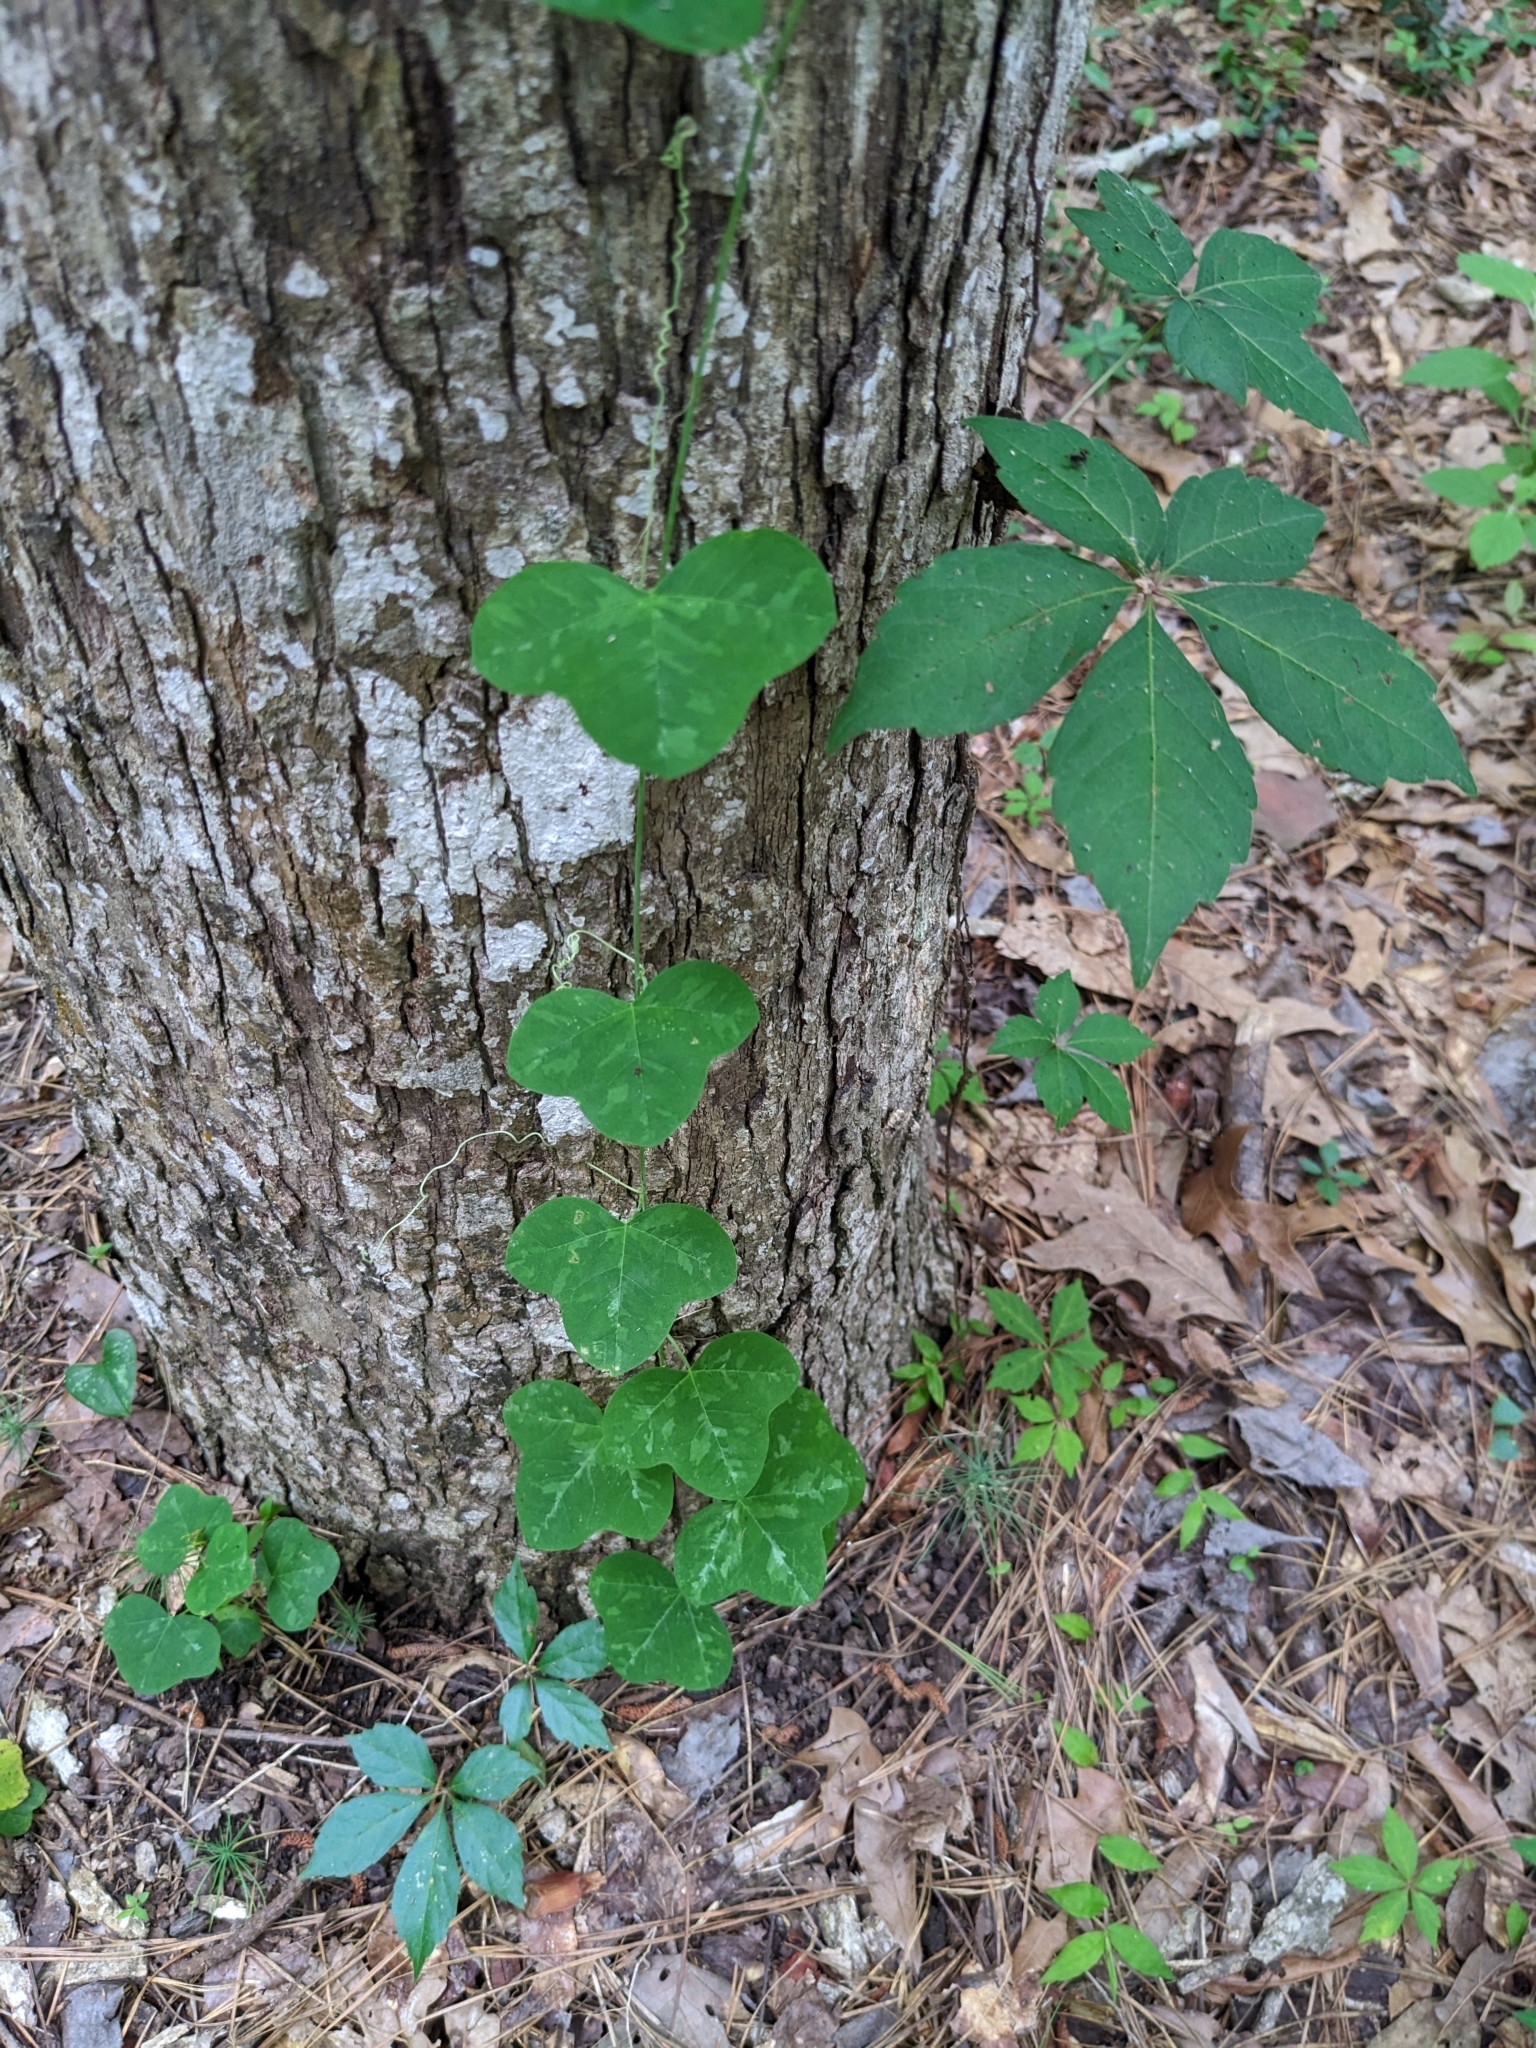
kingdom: Plantae
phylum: Tracheophyta
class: Magnoliopsida
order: Malpighiales
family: Passifloraceae
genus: Passiflora
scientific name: Passiflora lutea
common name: Yellow passionflower
